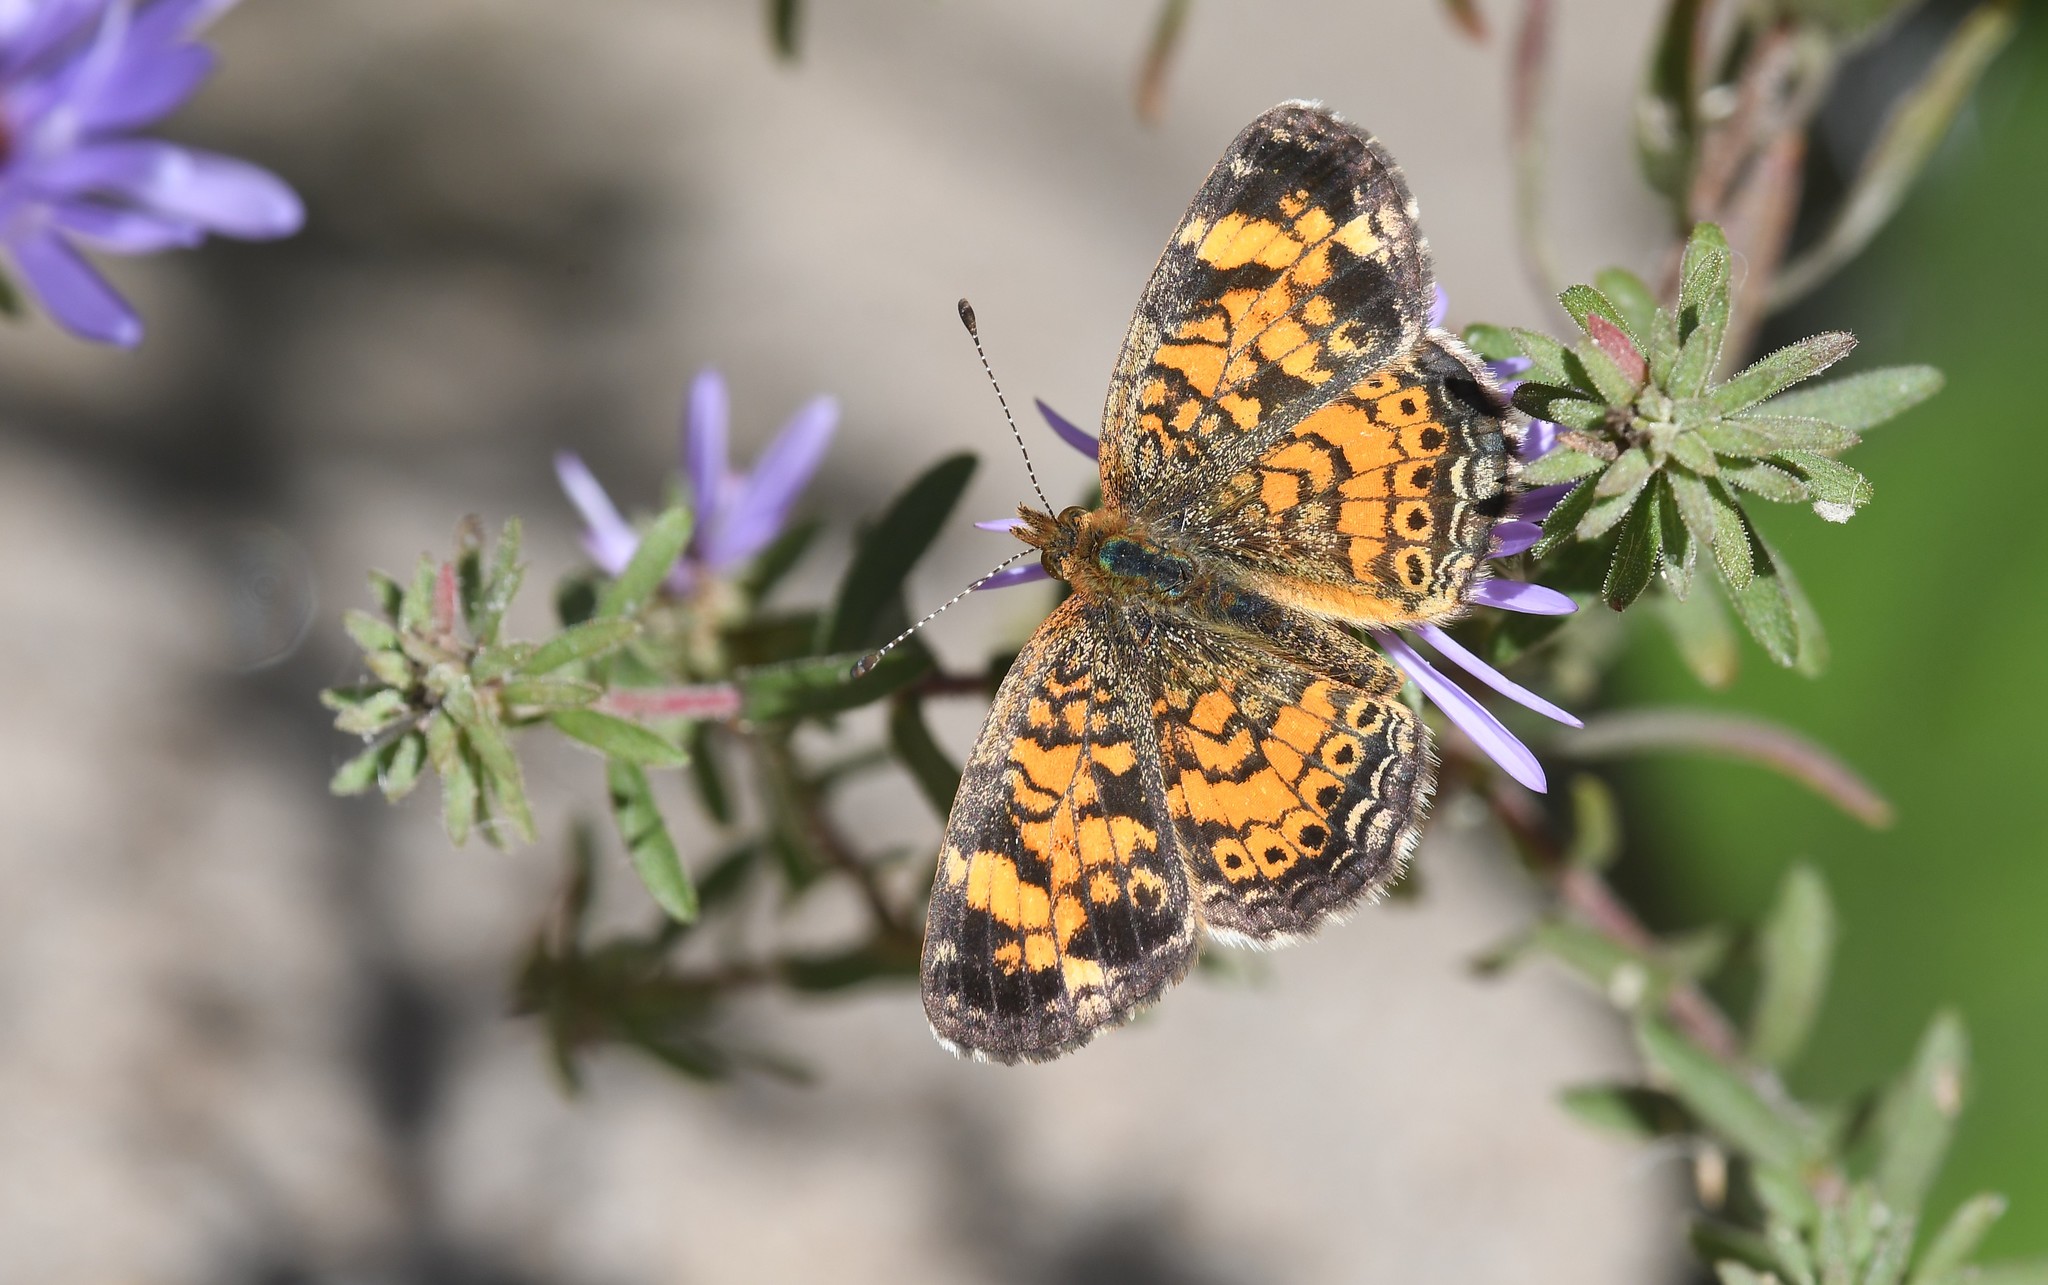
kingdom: Animalia
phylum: Arthropoda
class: Insecta
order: Lepidoptera
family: Nymphalidae
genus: Phyciodes
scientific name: Phyciodes tharos
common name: Pearl crescent
